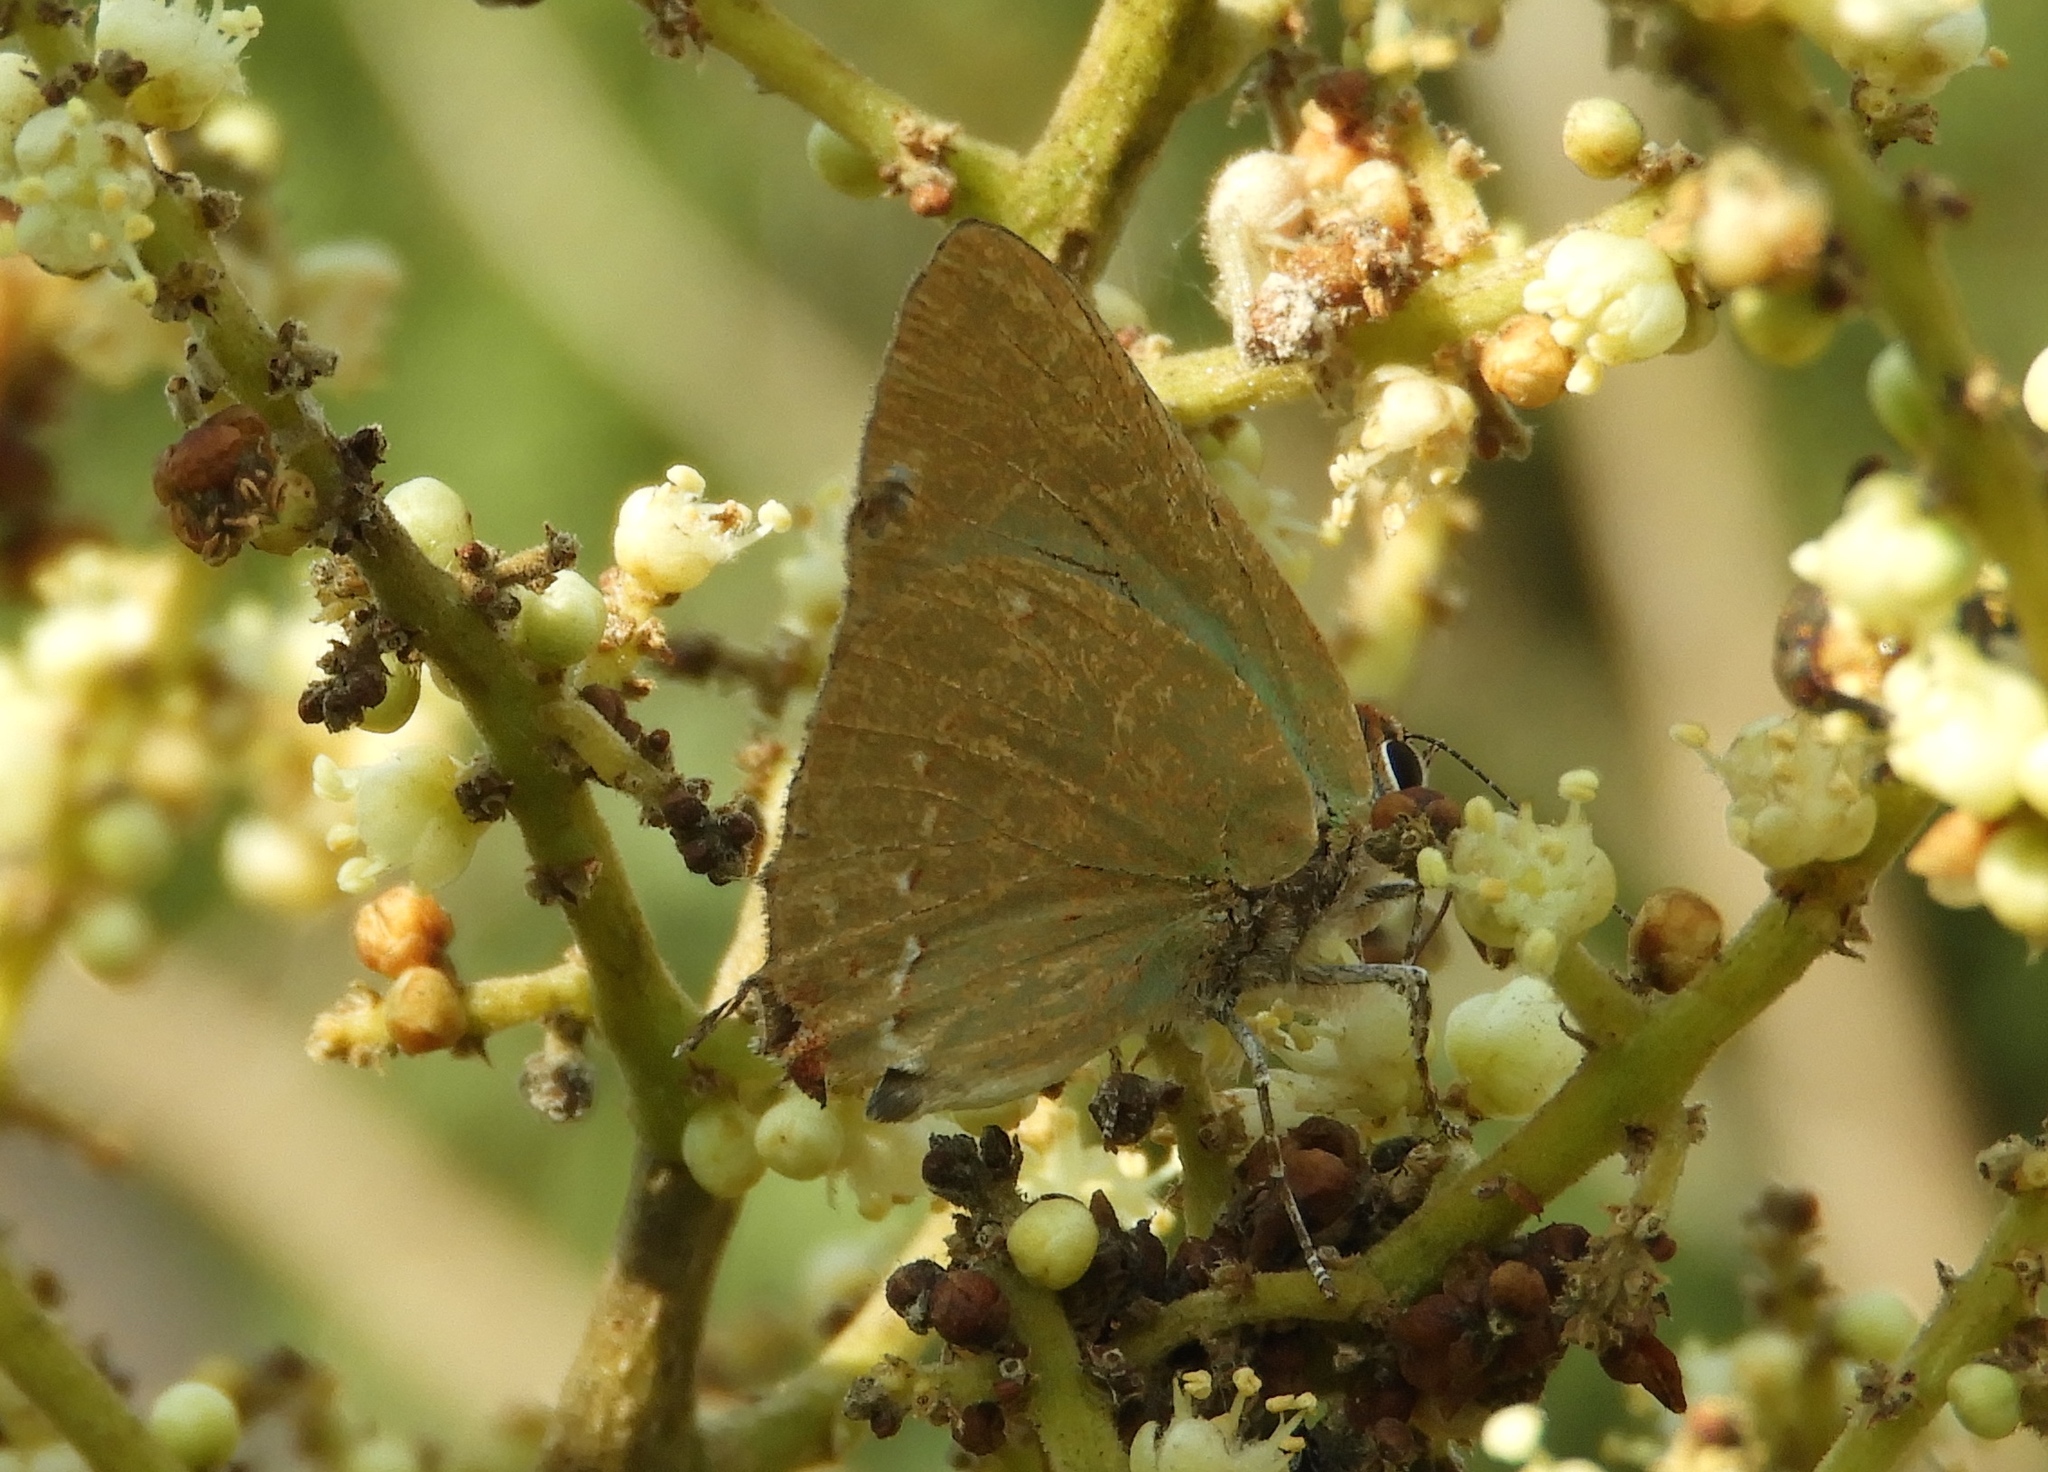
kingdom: Animalia
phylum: Arthropoda
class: Insecta
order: Lepidoptera
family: Lycaenidae
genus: Cyanophrys
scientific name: Cyanophrys
